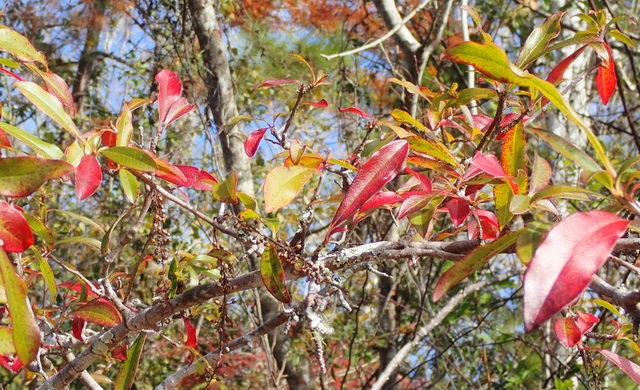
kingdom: Plantae
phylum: Tracheophyta
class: Magnoliopsida
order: Ericales
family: Cyrillaceae
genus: Cyrilla
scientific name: Cyrilla racemiflora
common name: Black titi
